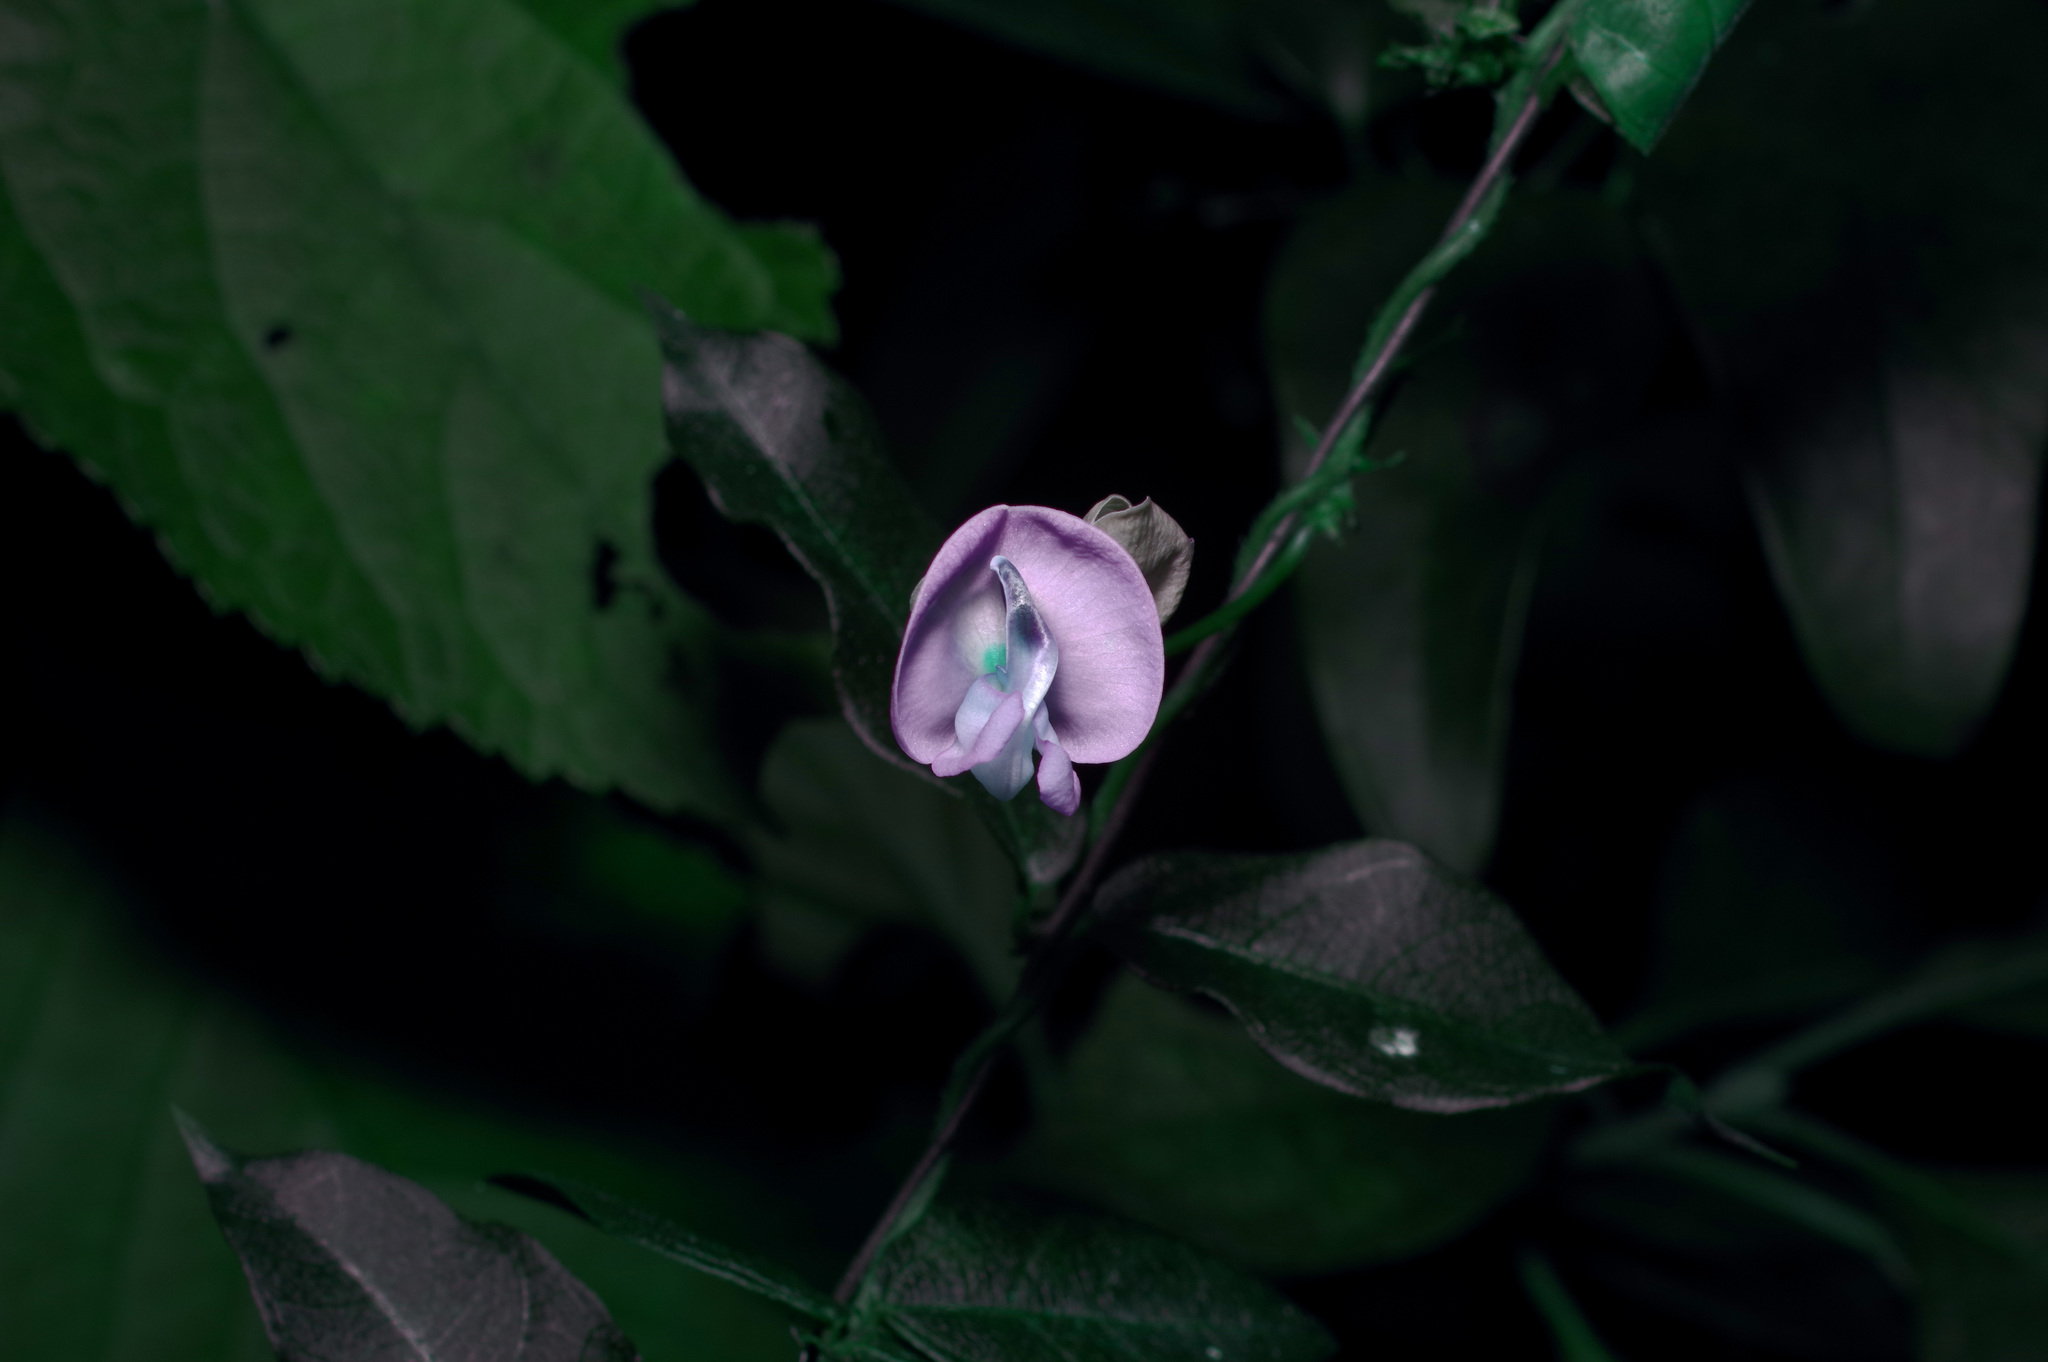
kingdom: Plantae
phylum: Tracheophyta
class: Magnoliopsida
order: Fabales
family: Fabaceae
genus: Strophostyles
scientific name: Strophostyles umbellata
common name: Perennial wild bean
